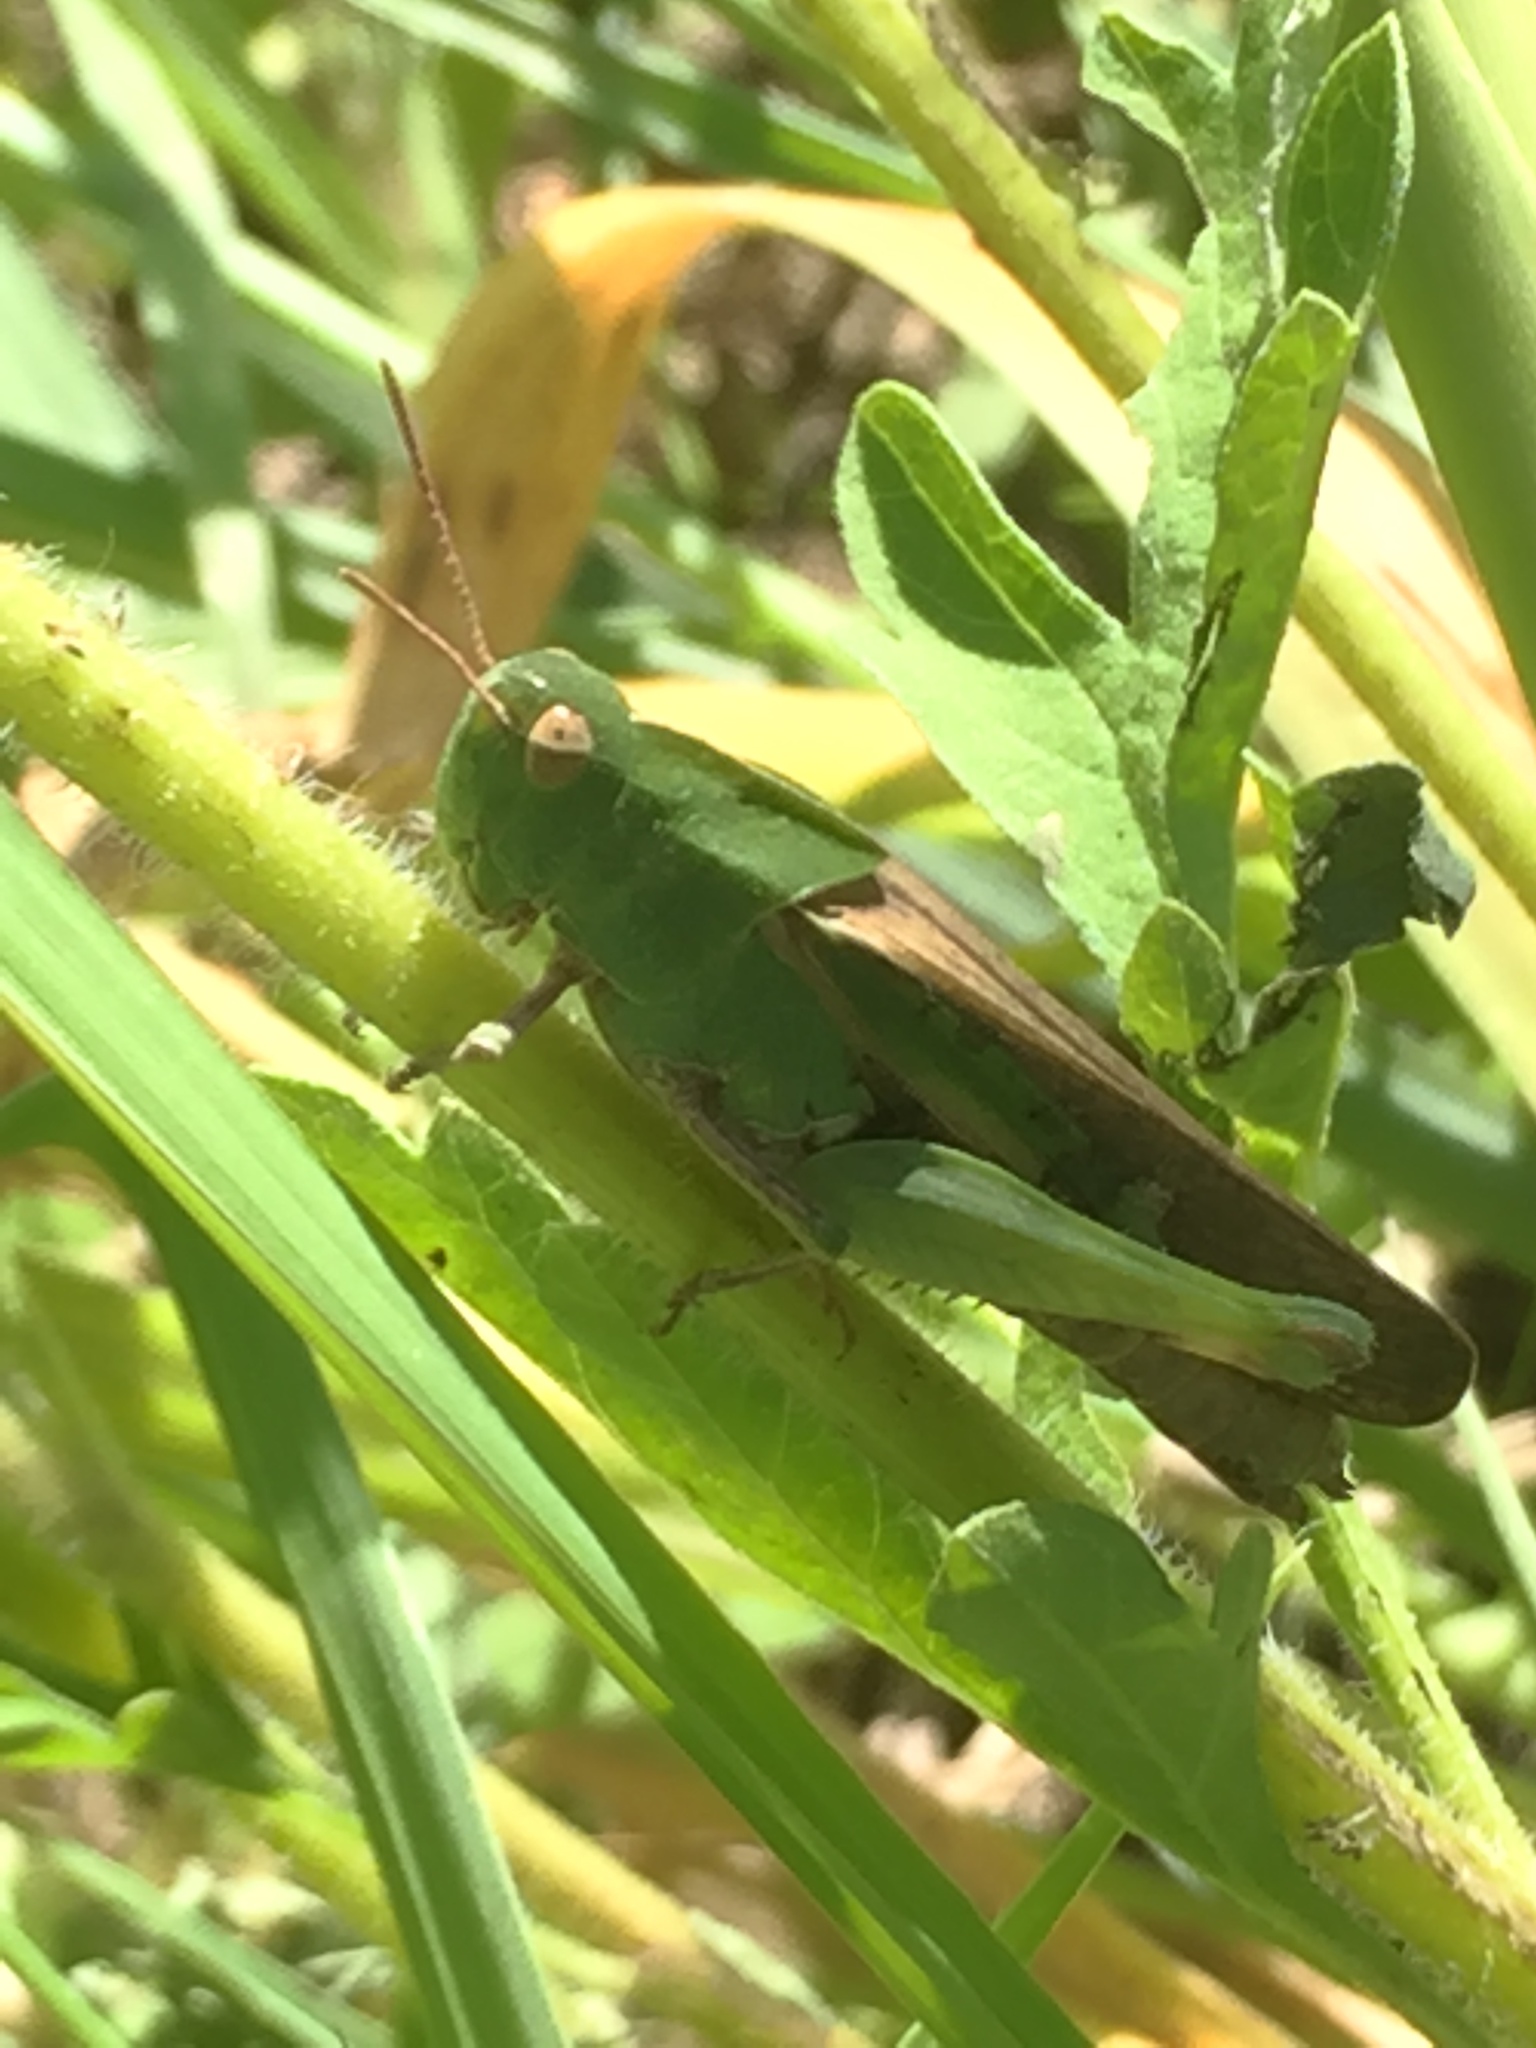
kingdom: Animalia
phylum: Arthropoda
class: Insecta
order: Orthoptera
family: Acrididae
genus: Chortophaga
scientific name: Chortophaga viridifasciata
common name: Green-striped grasshopper
